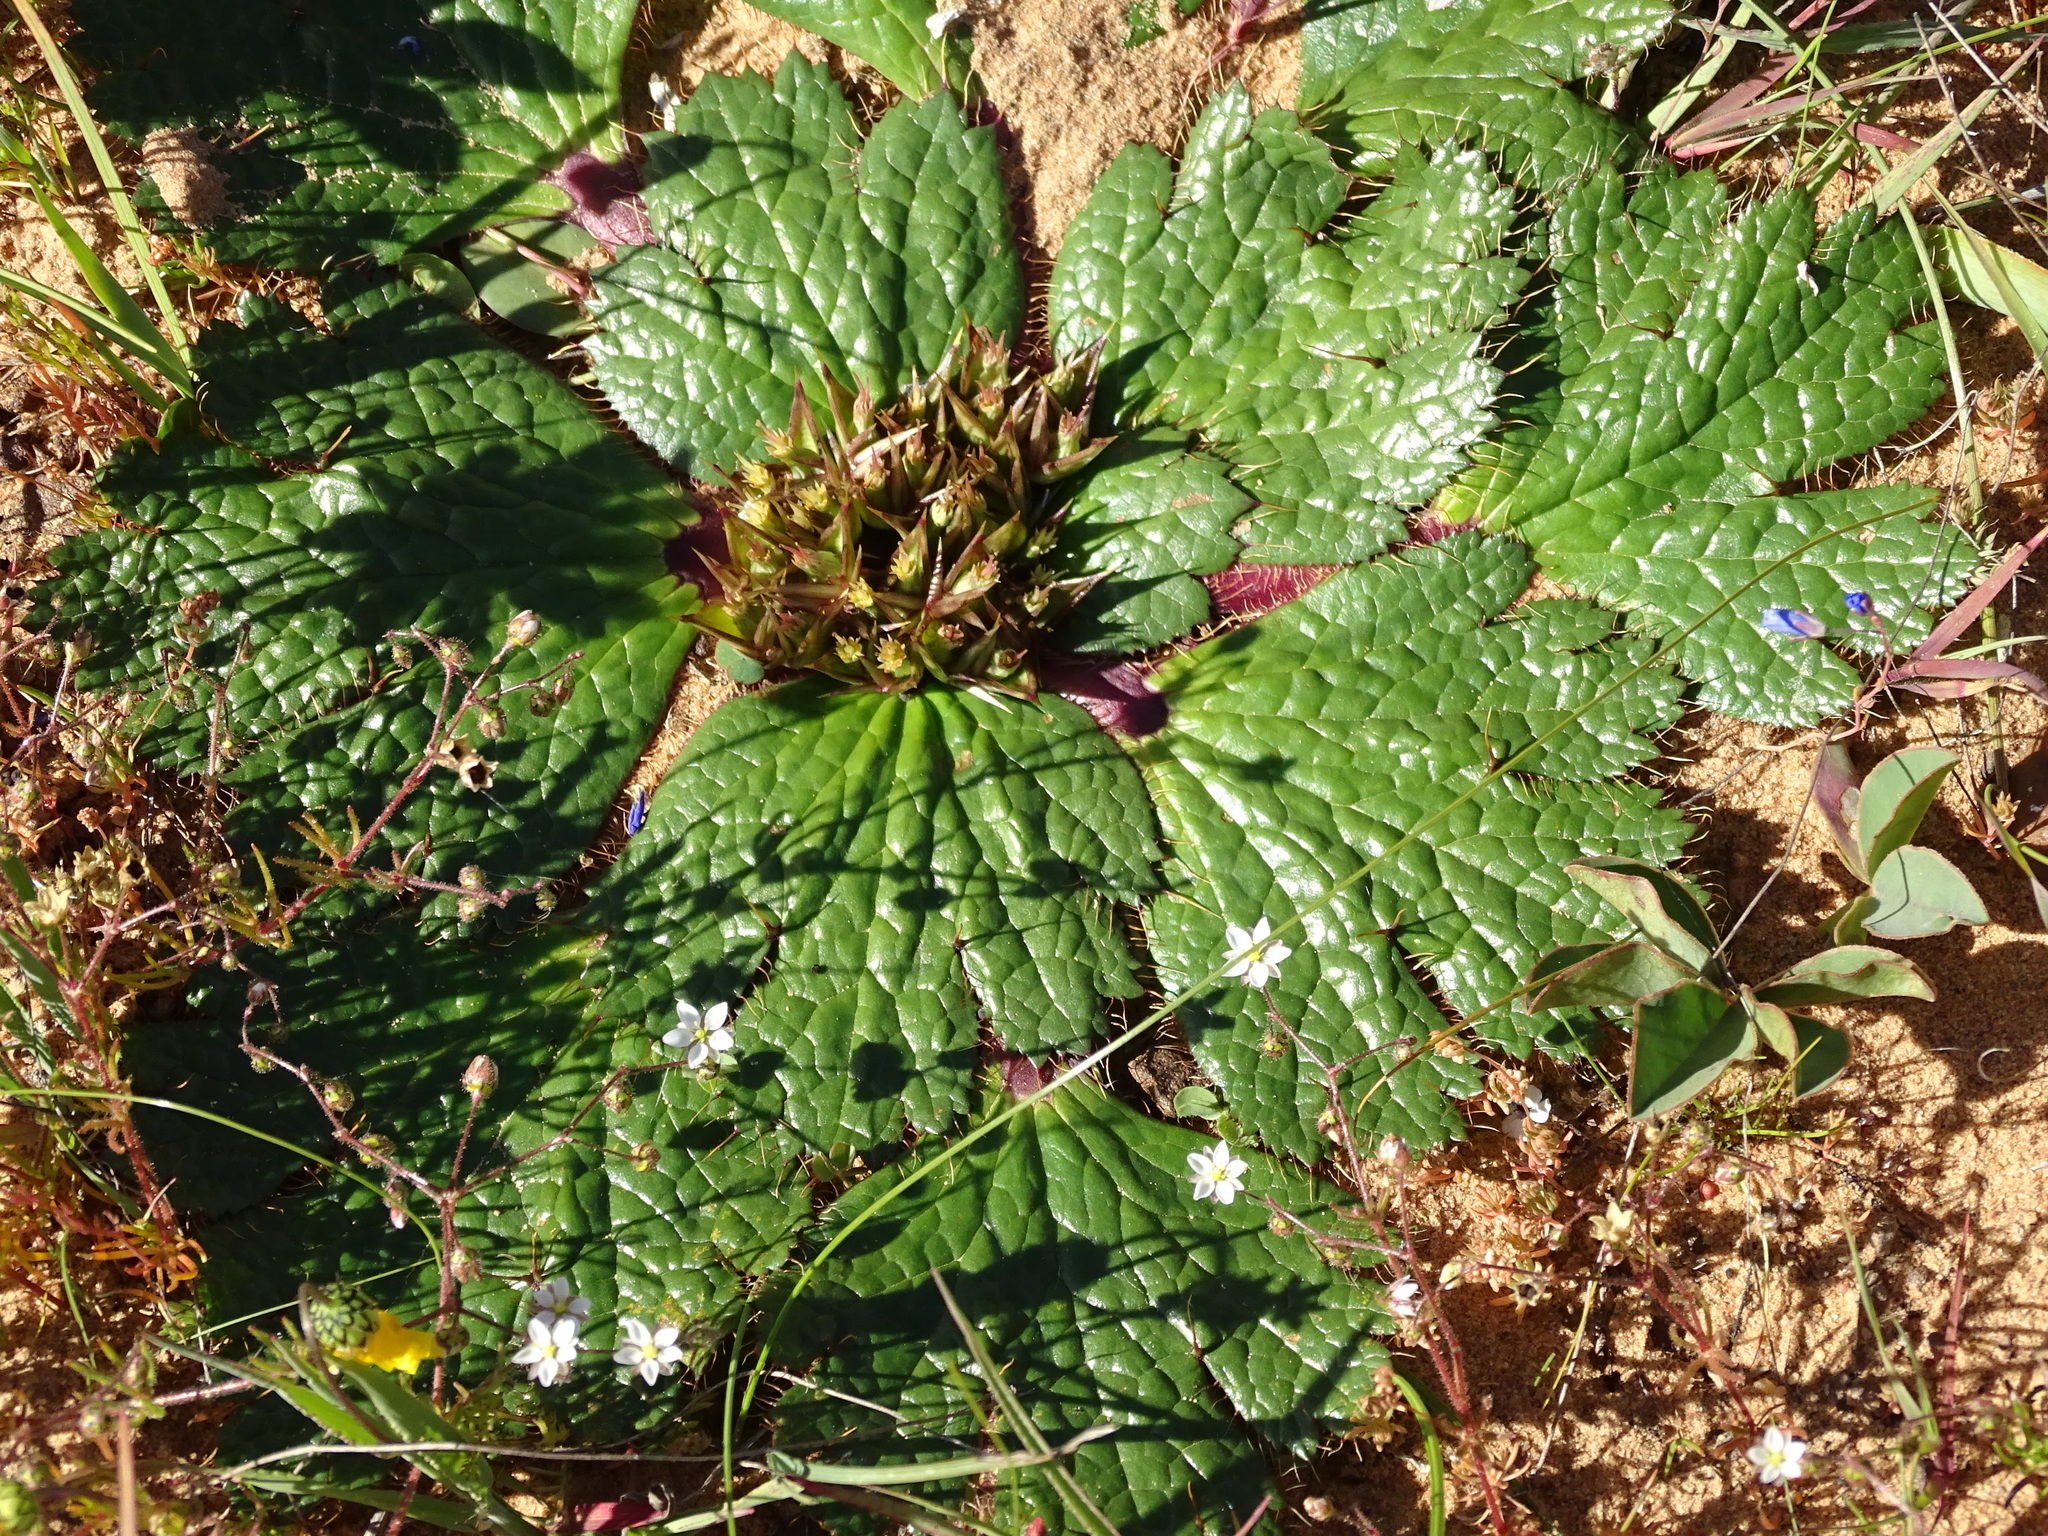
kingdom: Plantae
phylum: Tracheophyta
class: Magnoliopsida
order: Apiales
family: Apiaceae
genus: Arctopus
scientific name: Arctopus echinatus
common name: Platdoring
